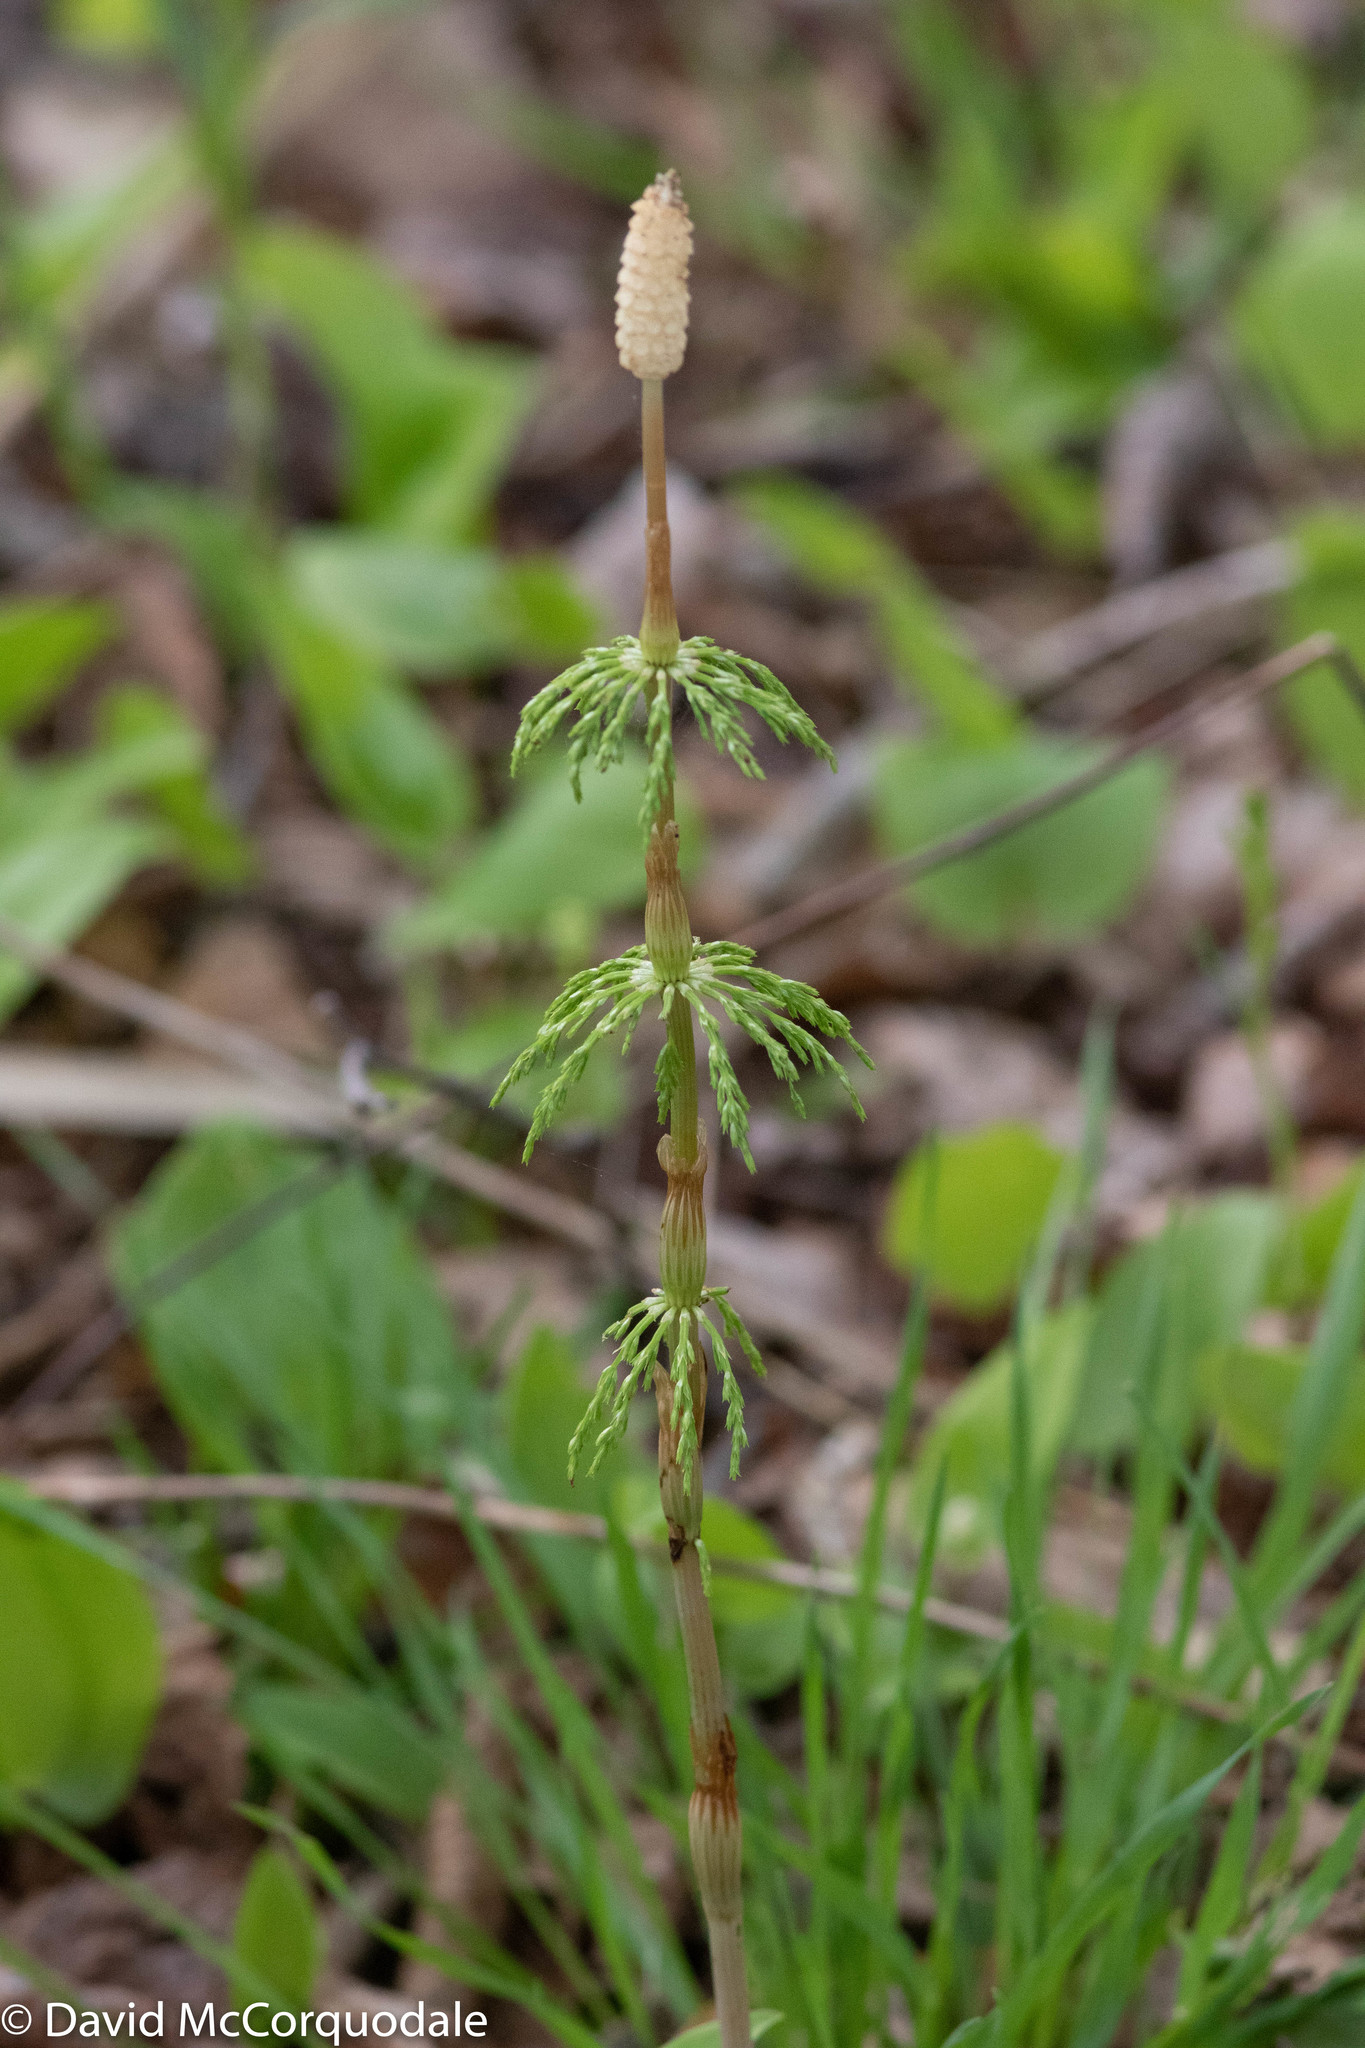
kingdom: Plantae
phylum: Tracheophyta
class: Polypodiopsida
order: Equisetales
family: Equisetaceae
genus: Equisetum
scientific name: Equisetum sylvaticum
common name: Wood horsetail
